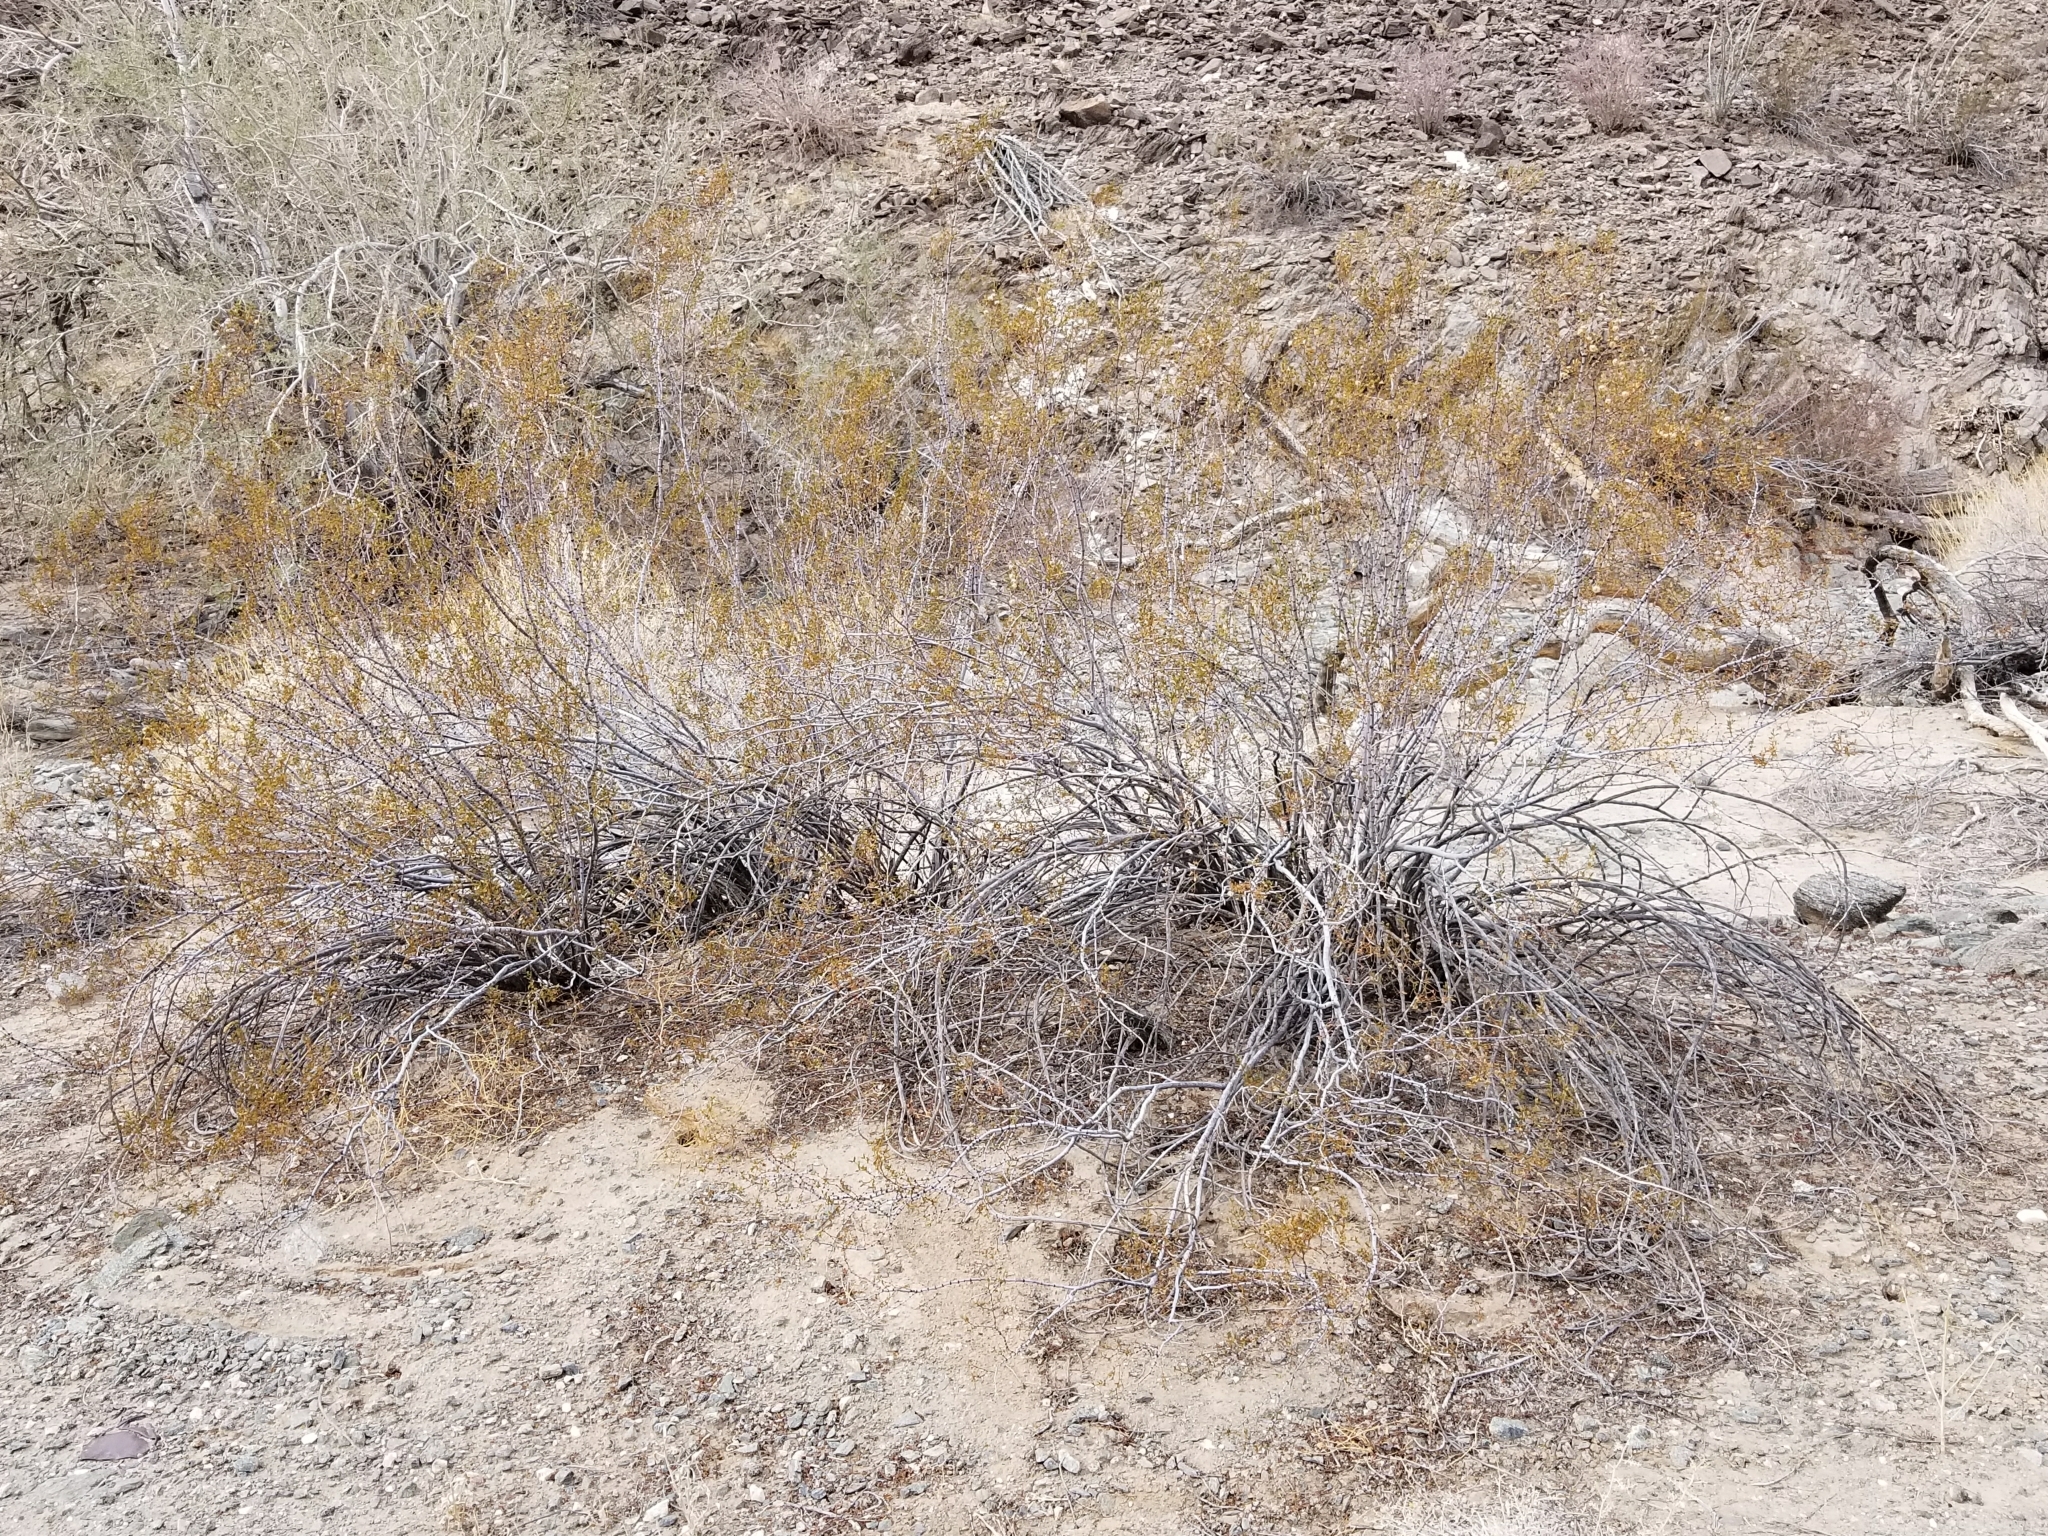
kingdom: Plantae
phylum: Tracheophyta
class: Magnoliopsida
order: Zygophyllales
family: Zygophyllaceae
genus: Larrea
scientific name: Larrea tridentata
